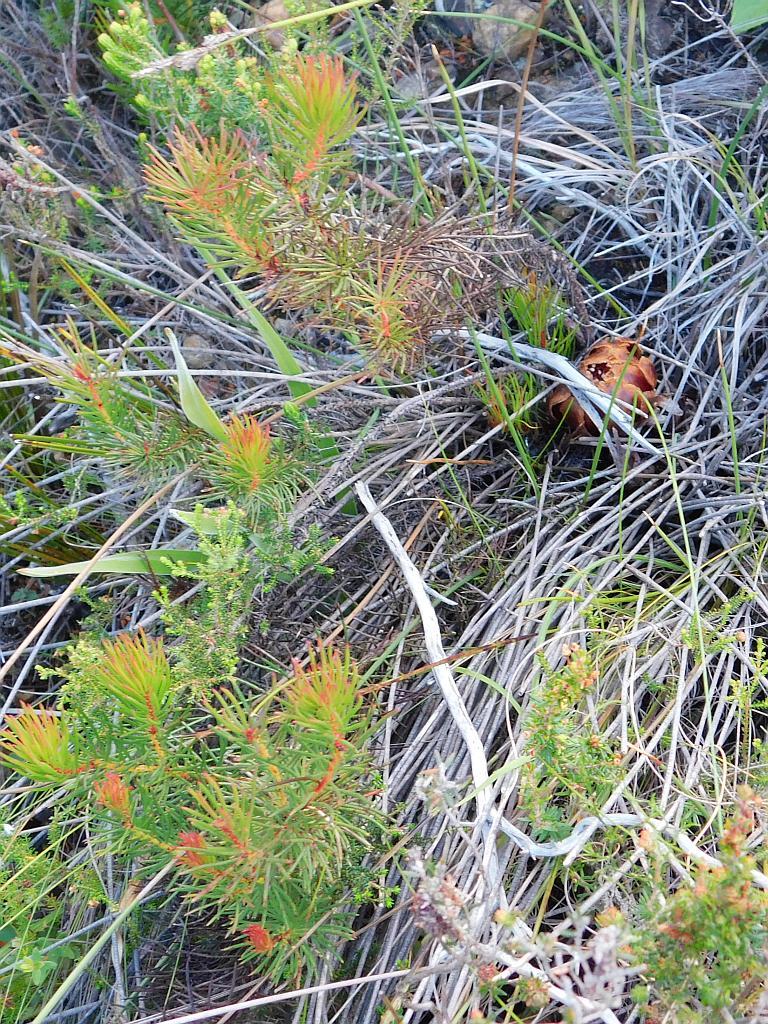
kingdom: Plantae
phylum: Tracheophyta
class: Magnoliopsida
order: Proteales
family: Proteaceae
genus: Protea
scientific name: Protea subulifolia
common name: Awl-leaf sugarbush
